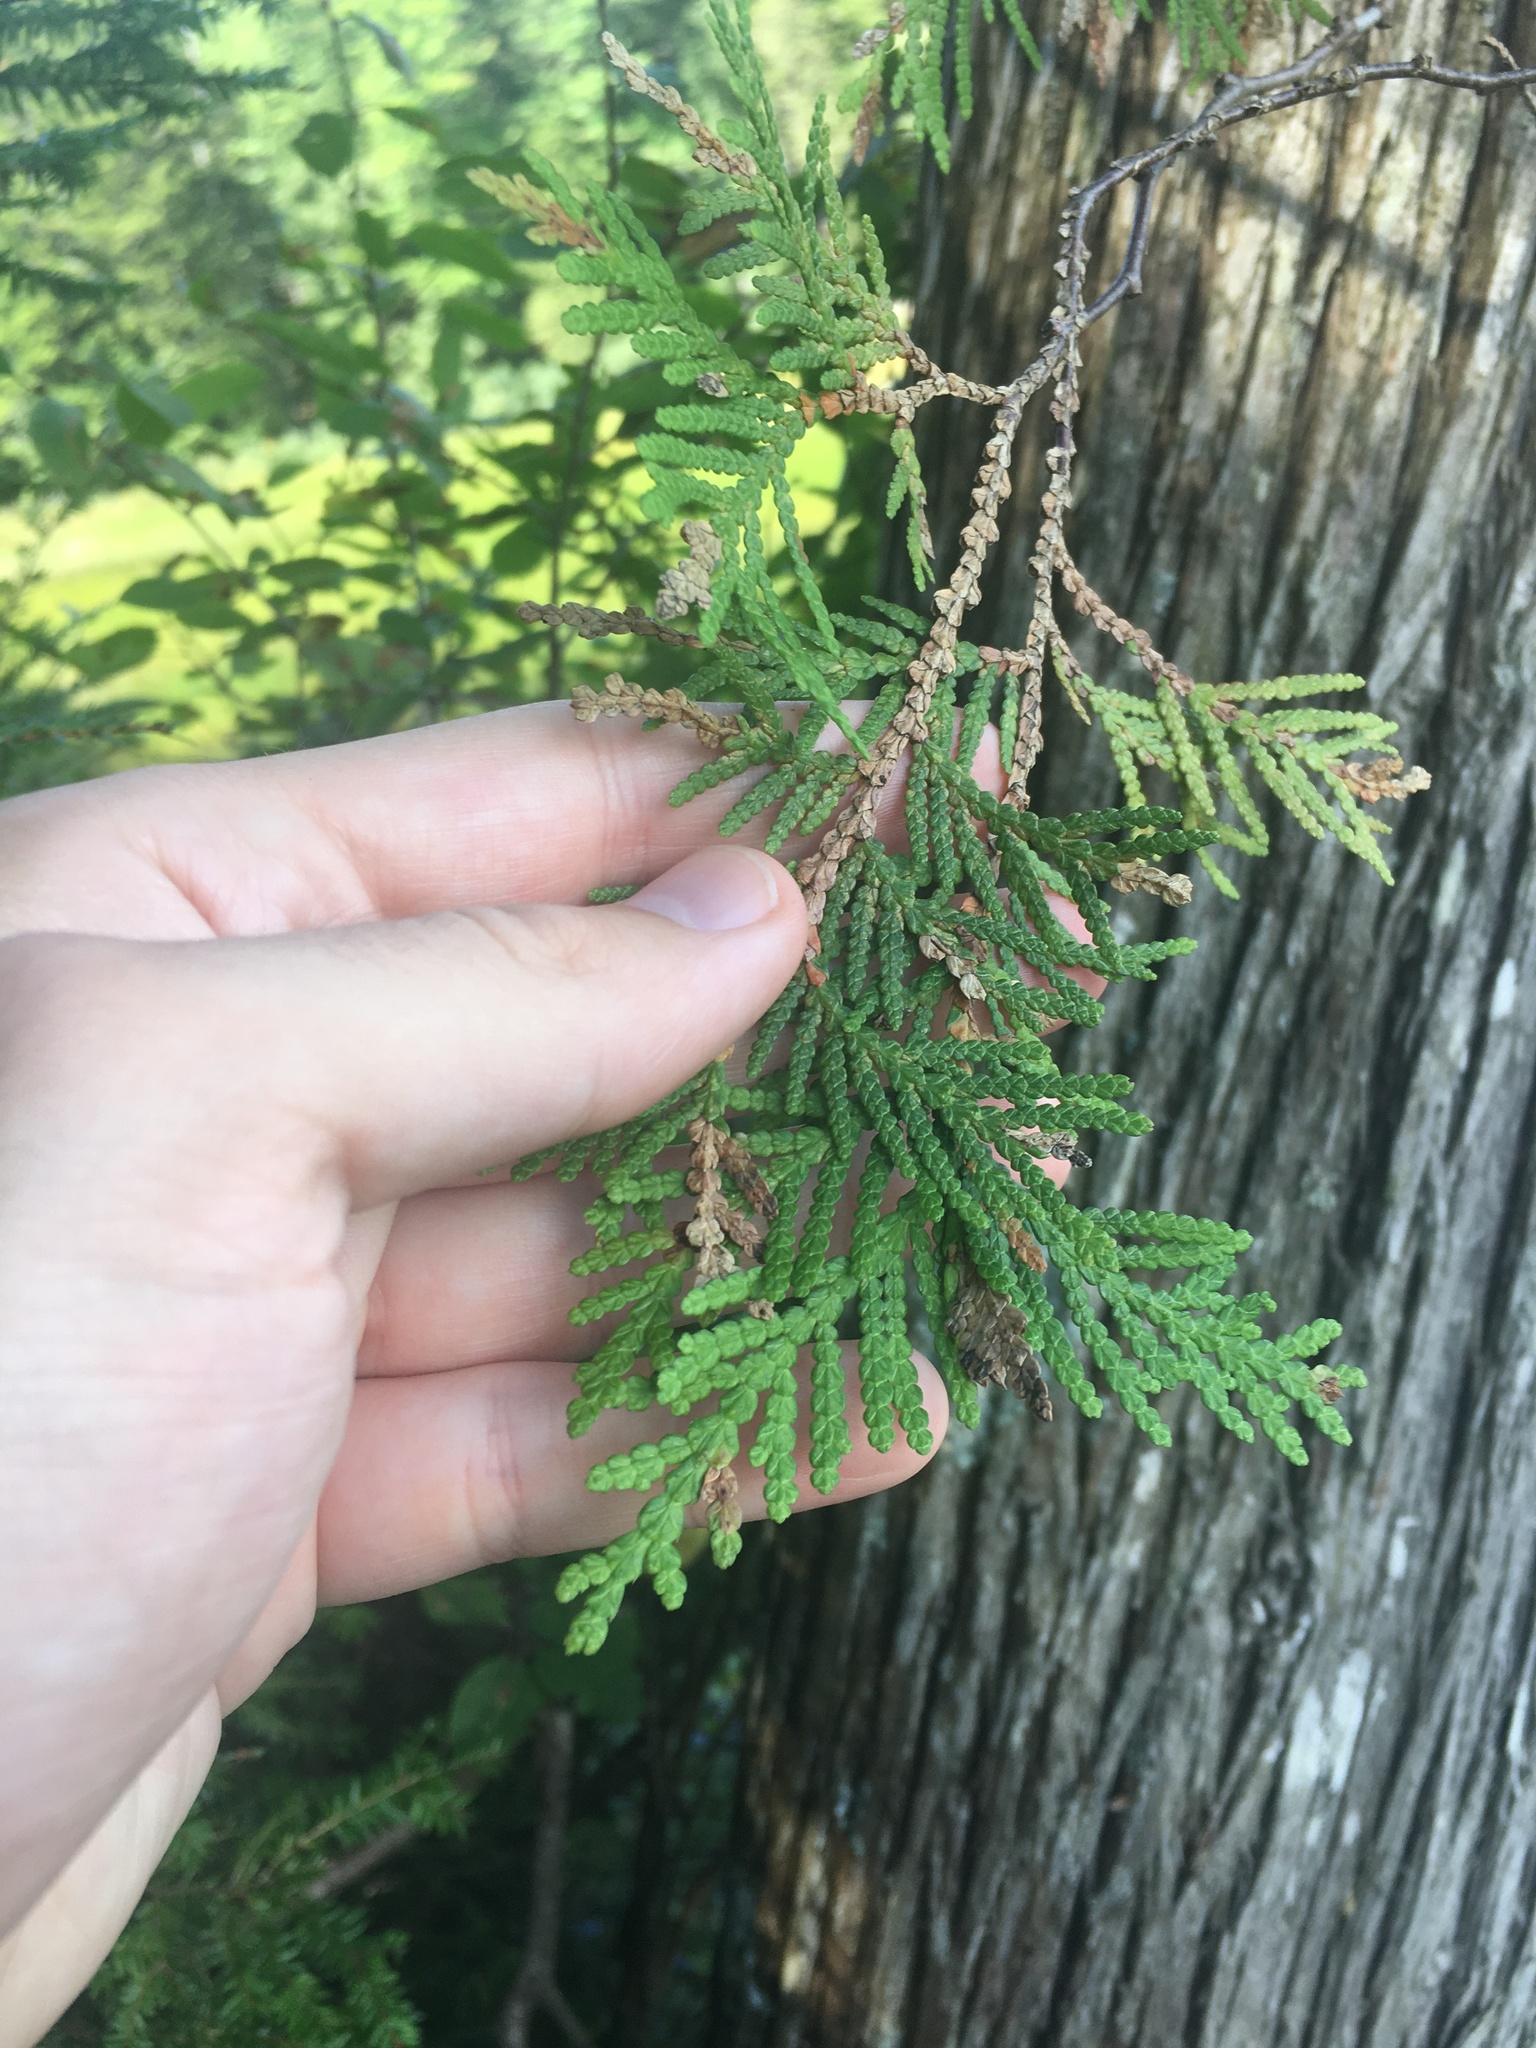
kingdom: Plantae
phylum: Tracheophyta
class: Pinopsida
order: Pinales
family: Cupressaceae
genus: Thuja
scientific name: Thuja occidentalis
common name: Northern white-cedar
